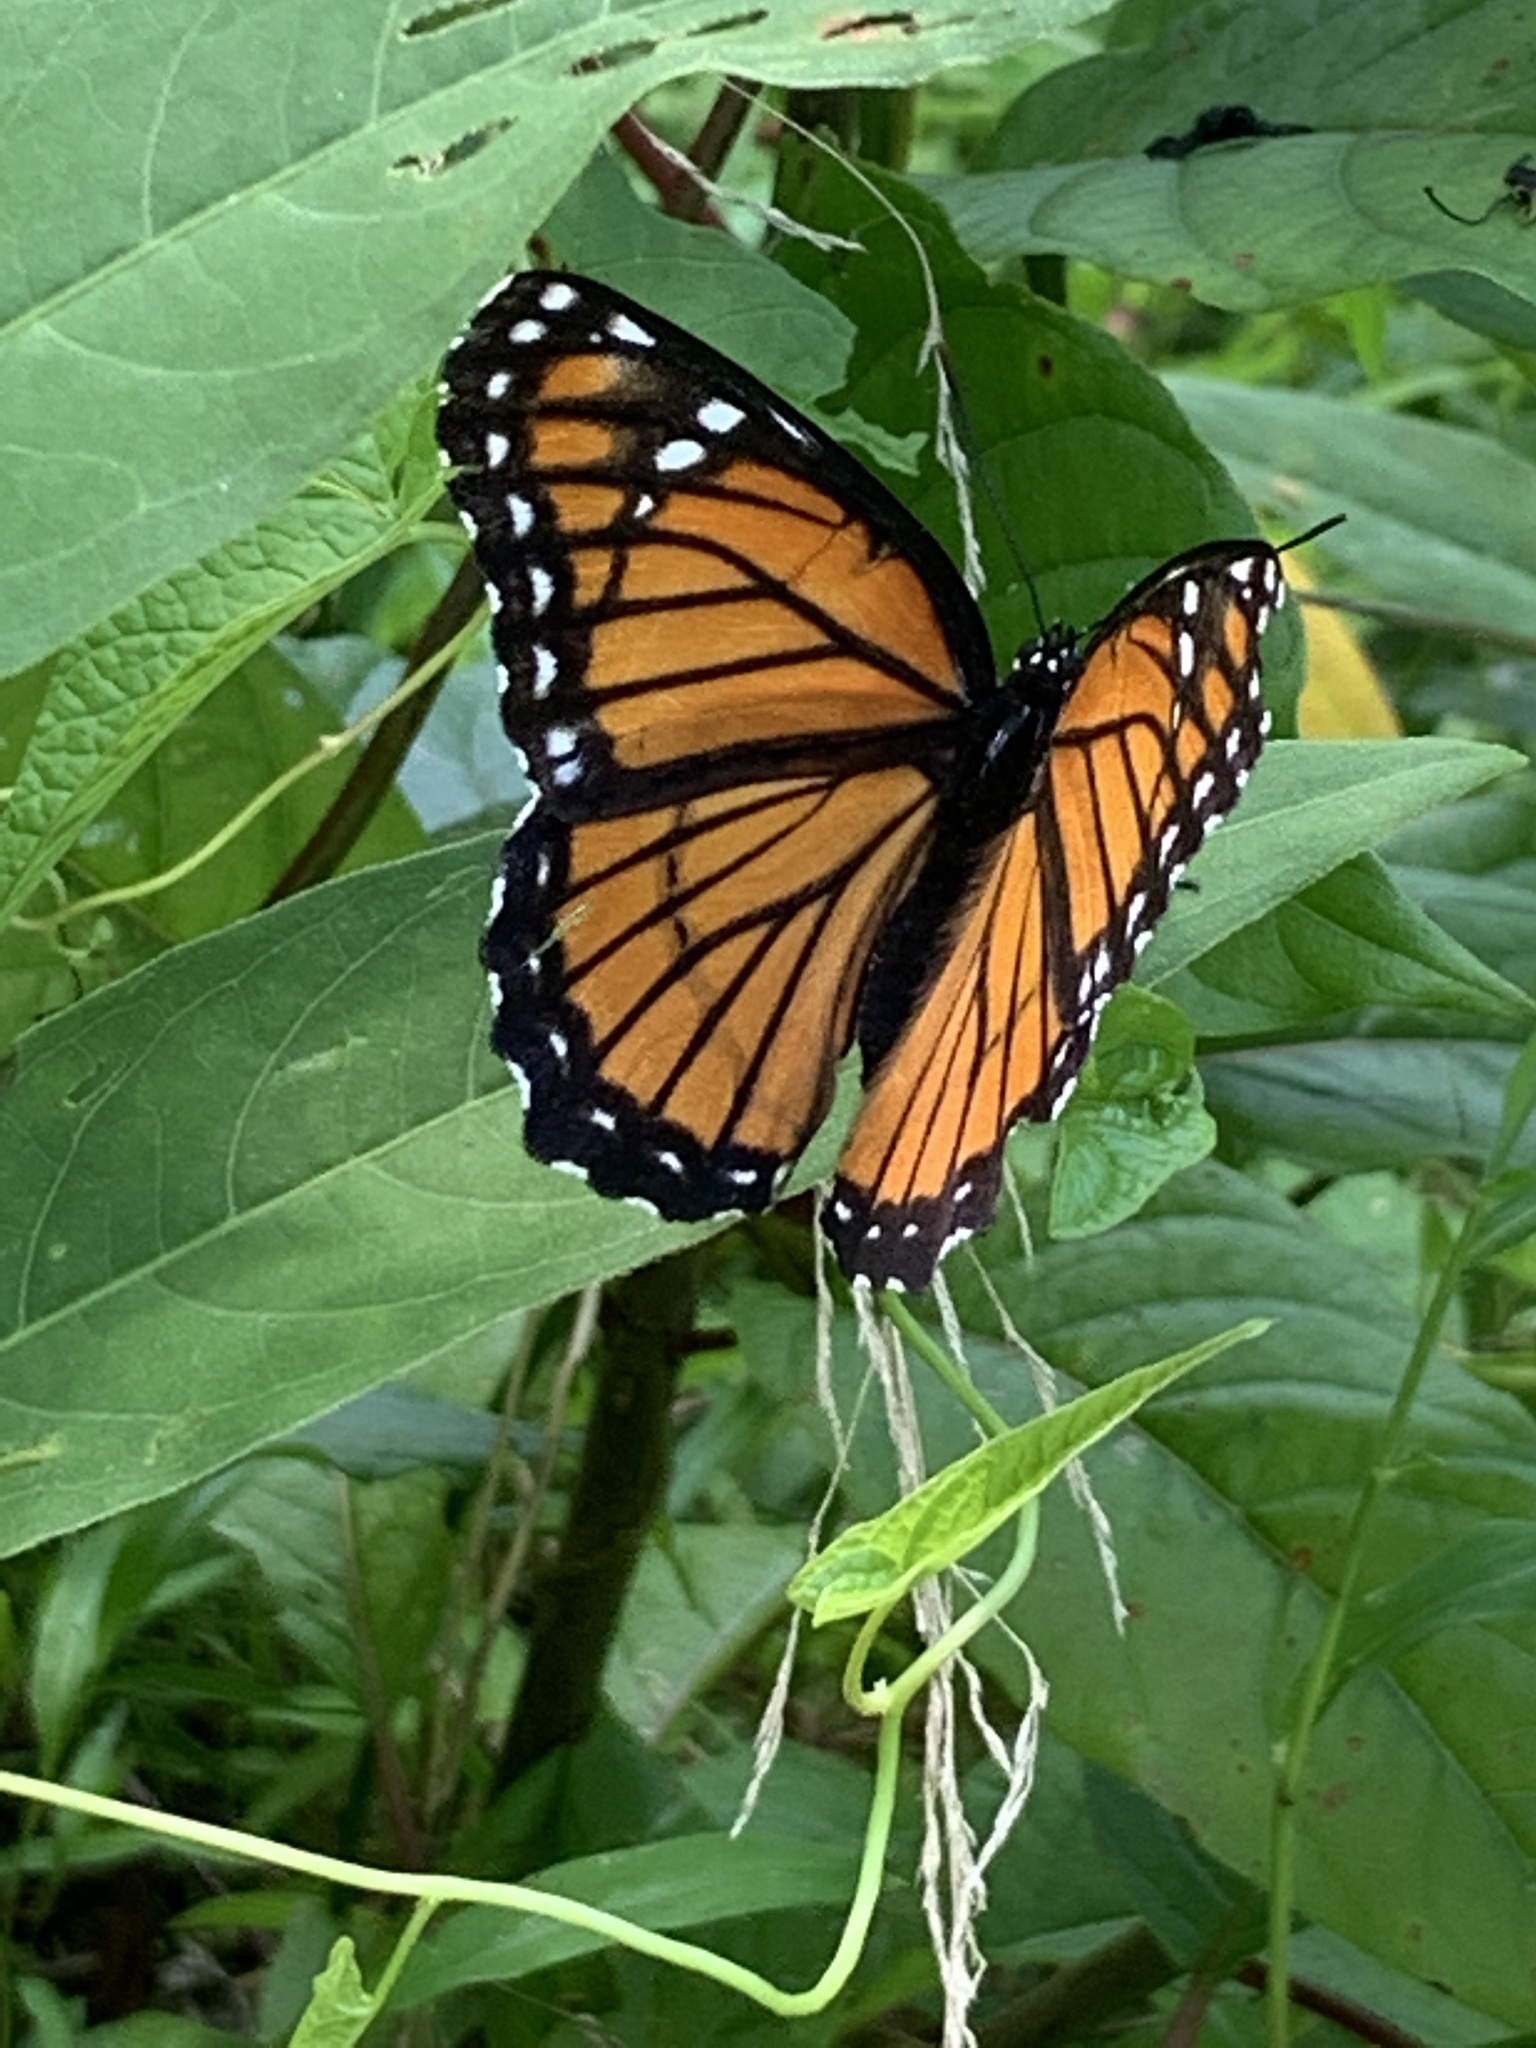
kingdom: Animalia
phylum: Arthropoda
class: Insecta
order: Lepidoptera
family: Nymphalidae
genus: Limenitis
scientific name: Limenitis archippus
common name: Viceroy
